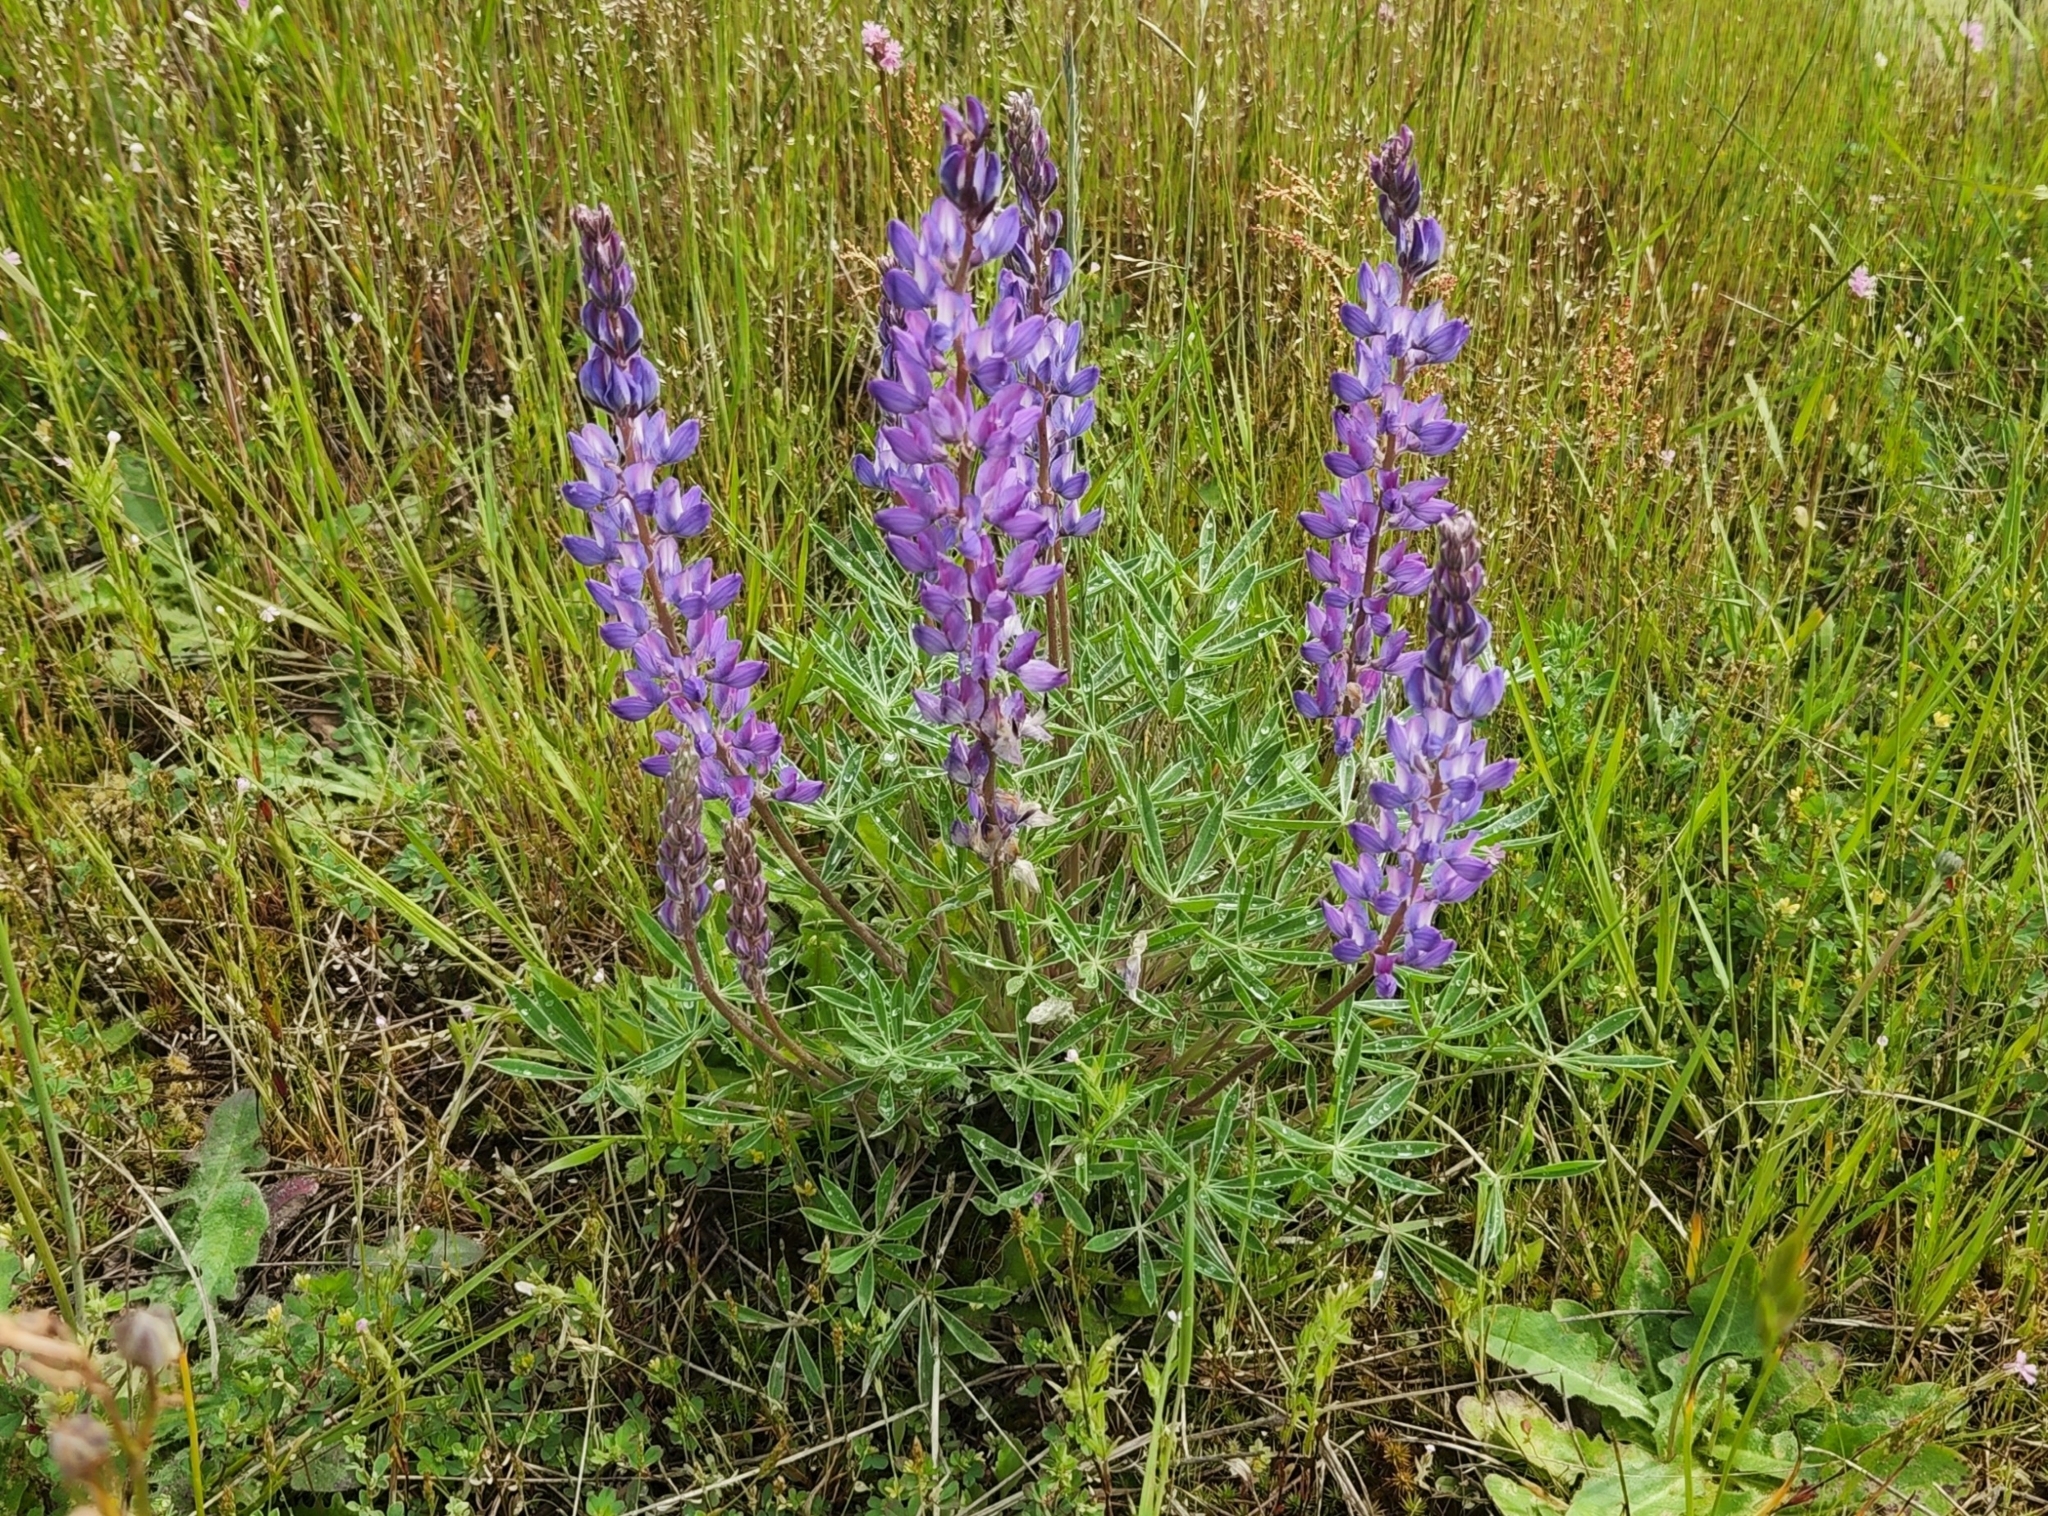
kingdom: Plantae
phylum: Tracheophyta
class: Magnoliopsida
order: Fabales
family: Fabaceae
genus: Lupinus
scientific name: Lupinus lepidus
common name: Prairie lupine
